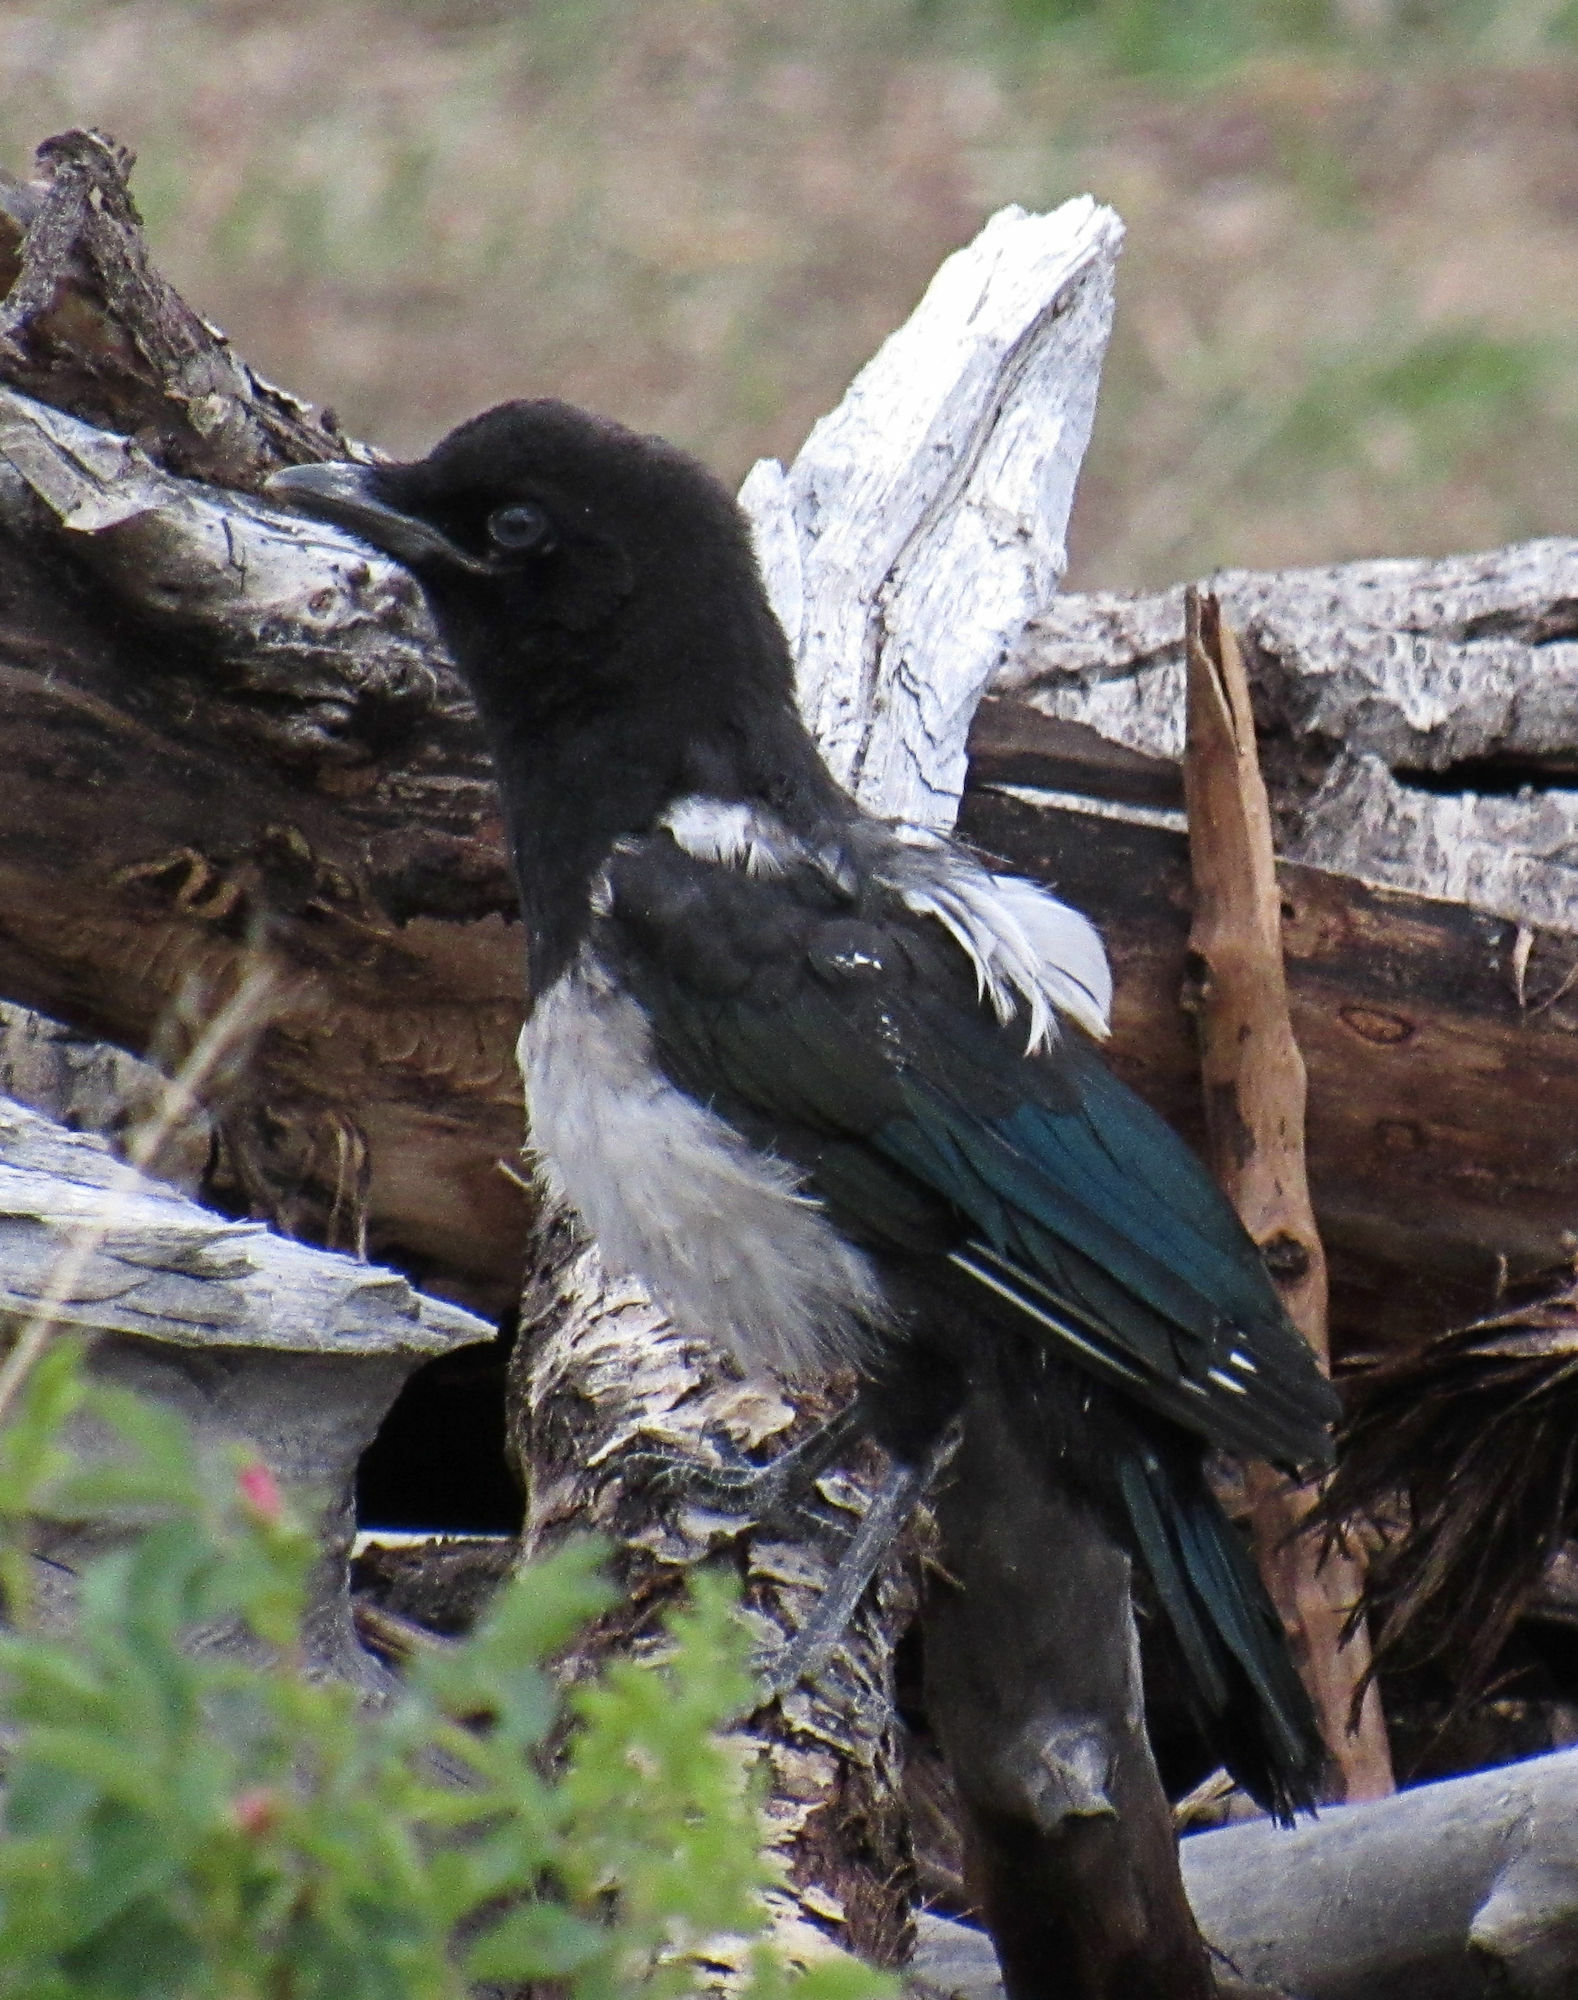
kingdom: Animalia
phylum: Chordata
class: Aves
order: Passeriformes
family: Corvidae
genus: Pica
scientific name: Pica hudsonia
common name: Black-billed magpie
